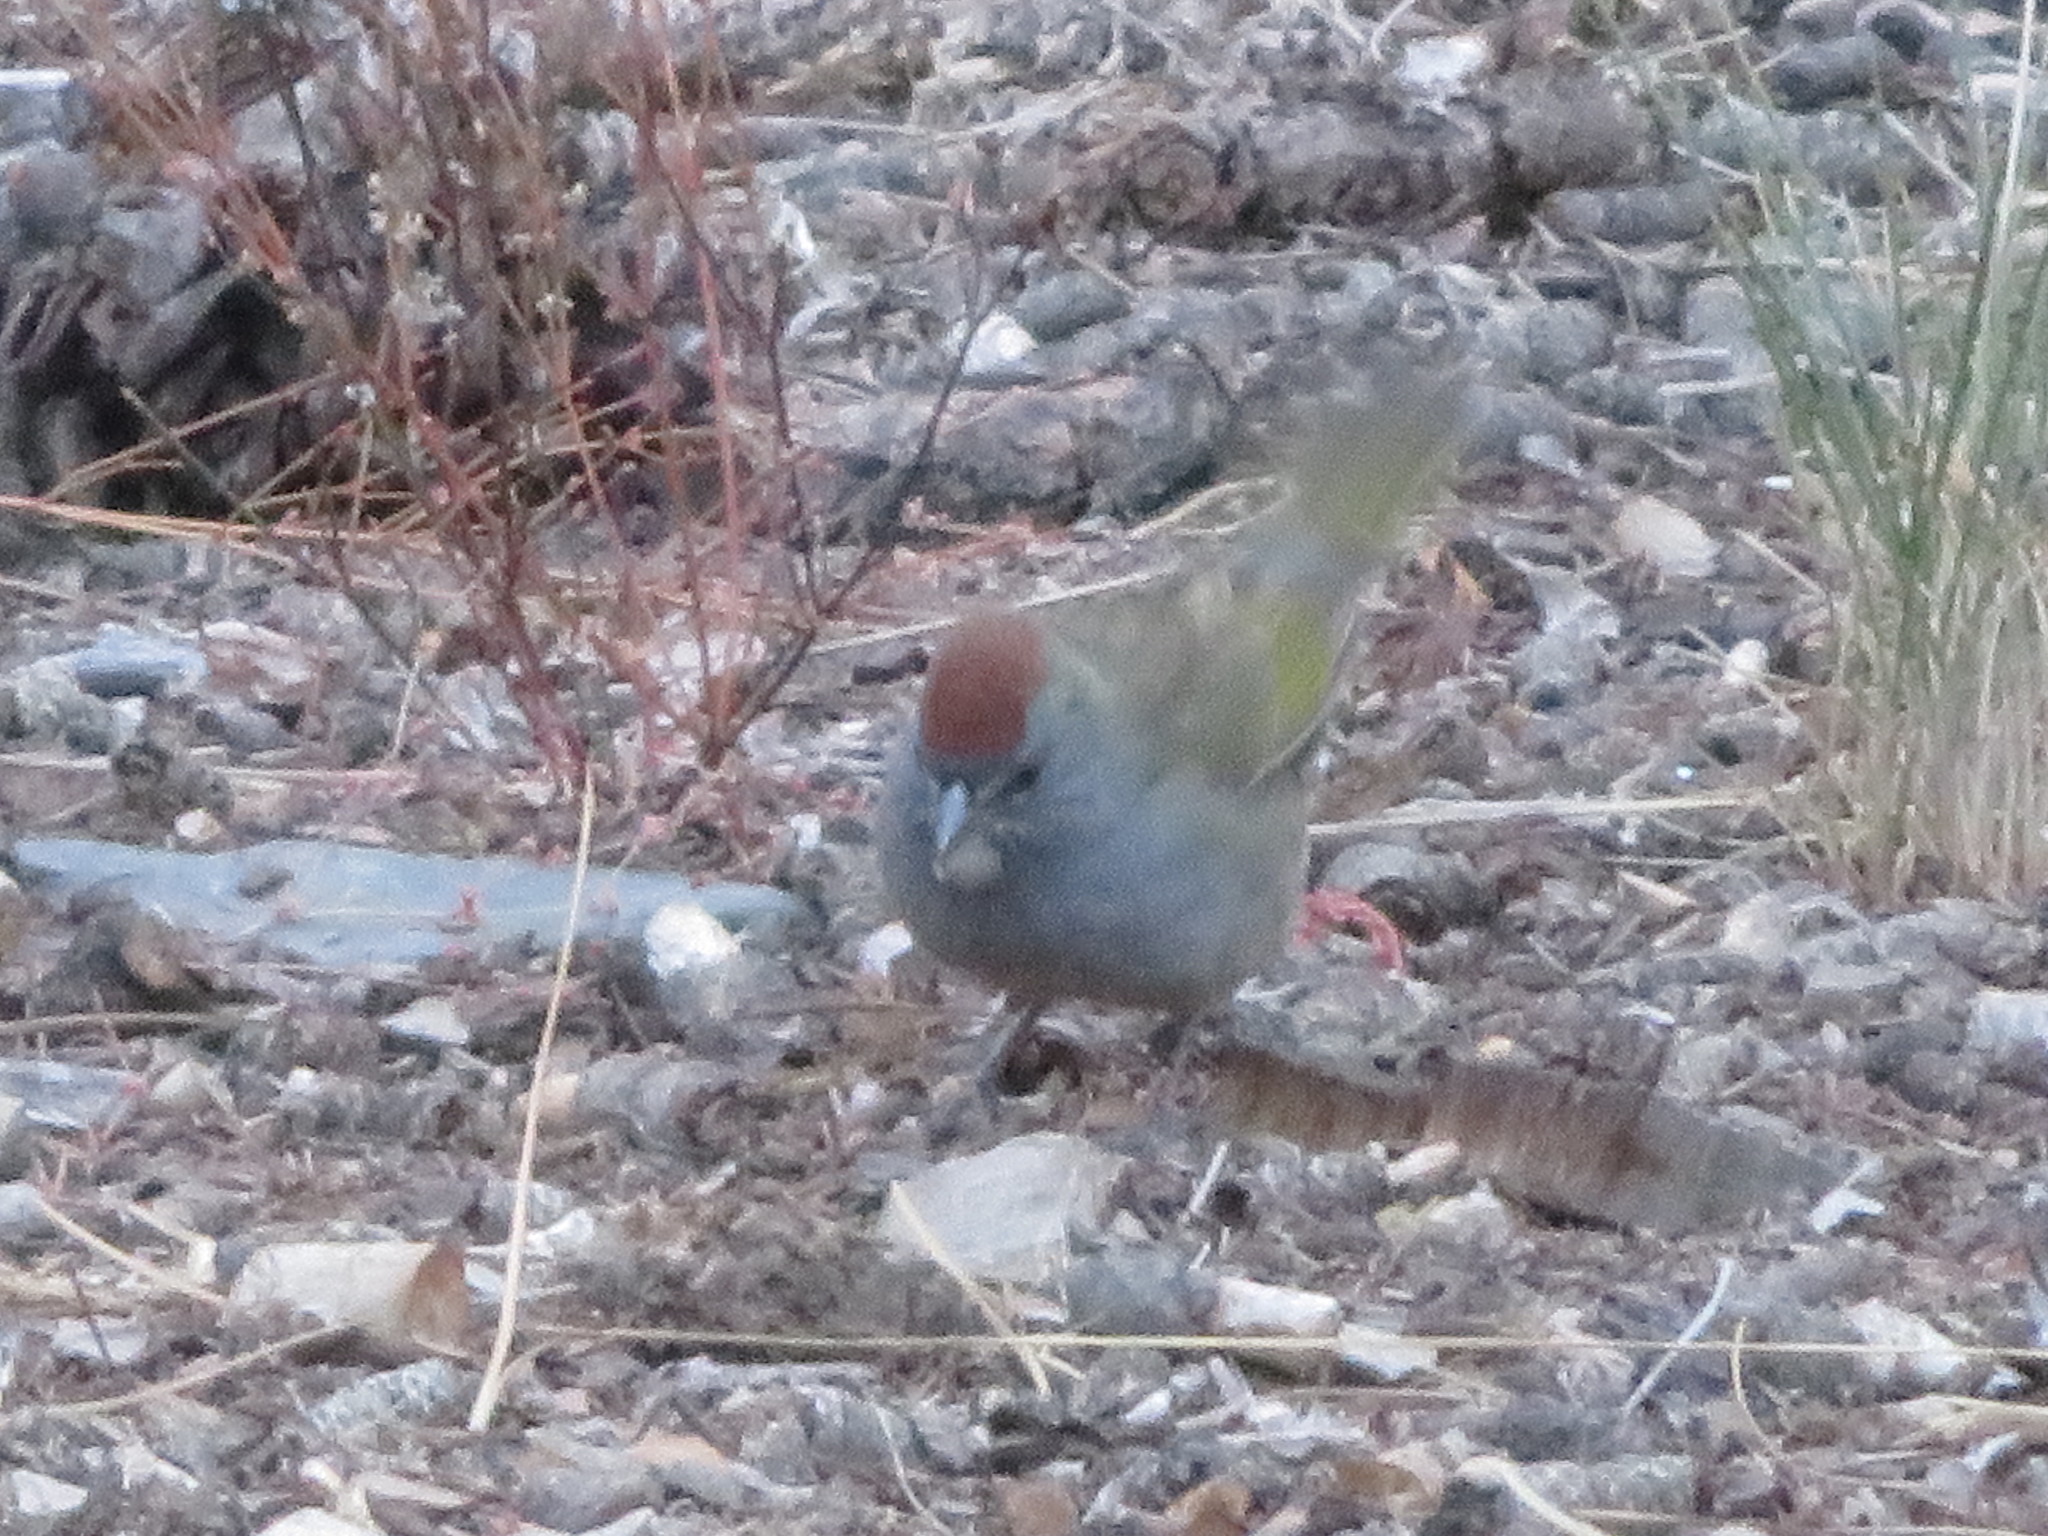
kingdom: Animalia
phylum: Chordata
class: Aves
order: Passeriformes
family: Passerellidae
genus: Pipilo
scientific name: Pipilo chlorurus
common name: Green-tailed towhee
